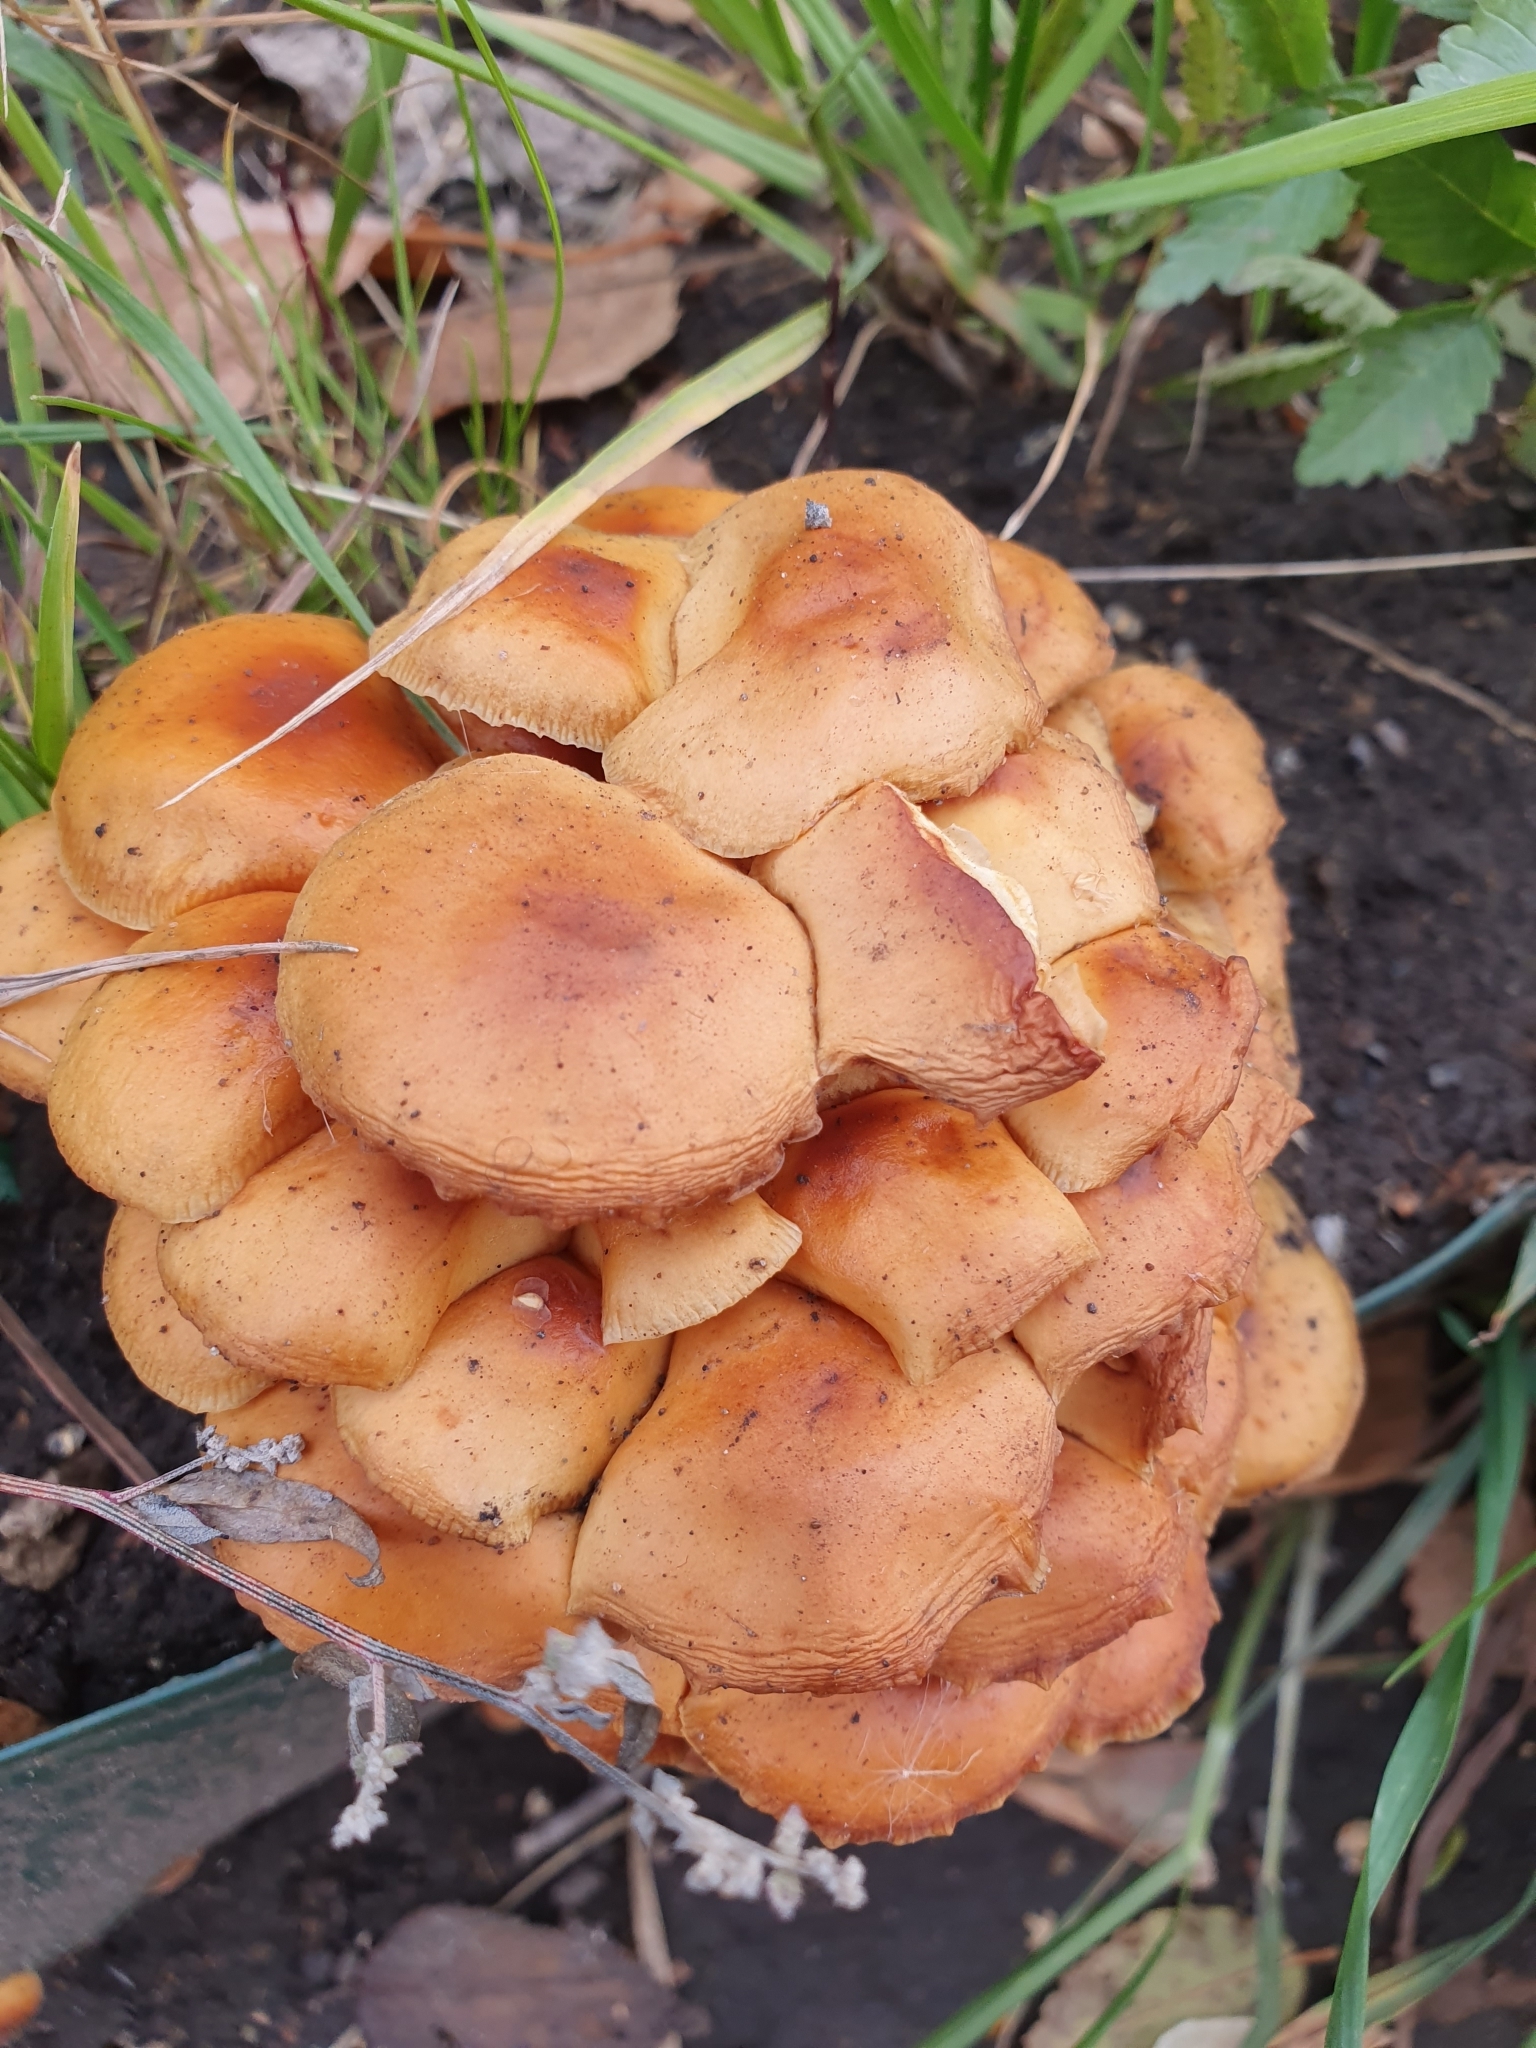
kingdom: Fungi
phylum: Basidiomycota
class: Agaricomycetes
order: Agaricales
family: Physalacriaceae
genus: Flammulina
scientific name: Flammulina
